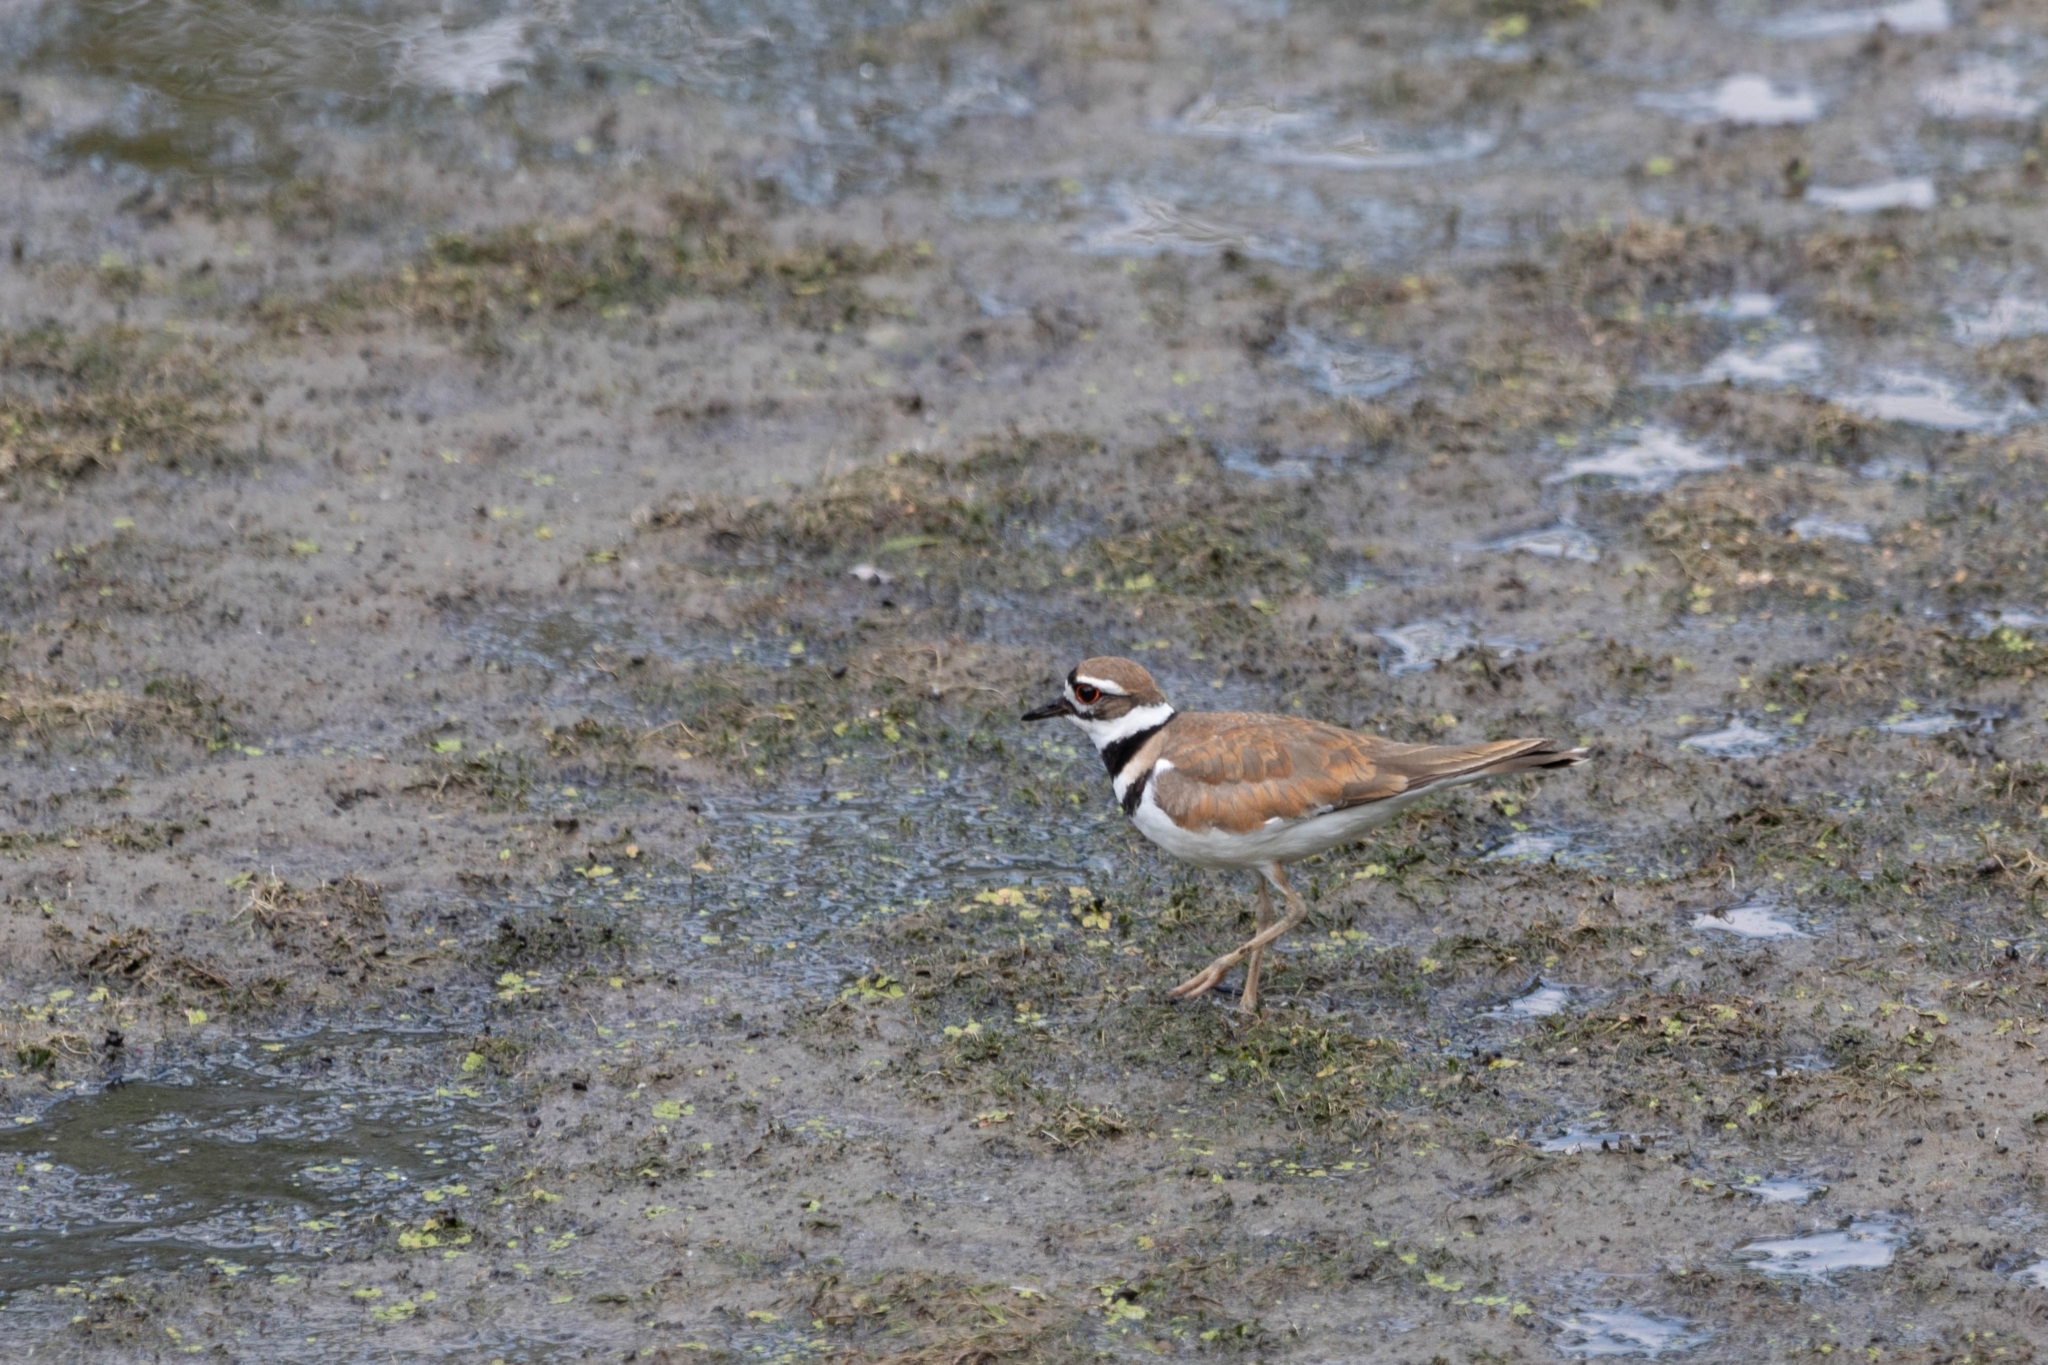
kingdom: Animalia
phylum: Chordata
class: Aves
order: Charadriiformes
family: Charadriidae
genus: Charadrius
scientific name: Charadrius vociferus
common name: Killdeer
